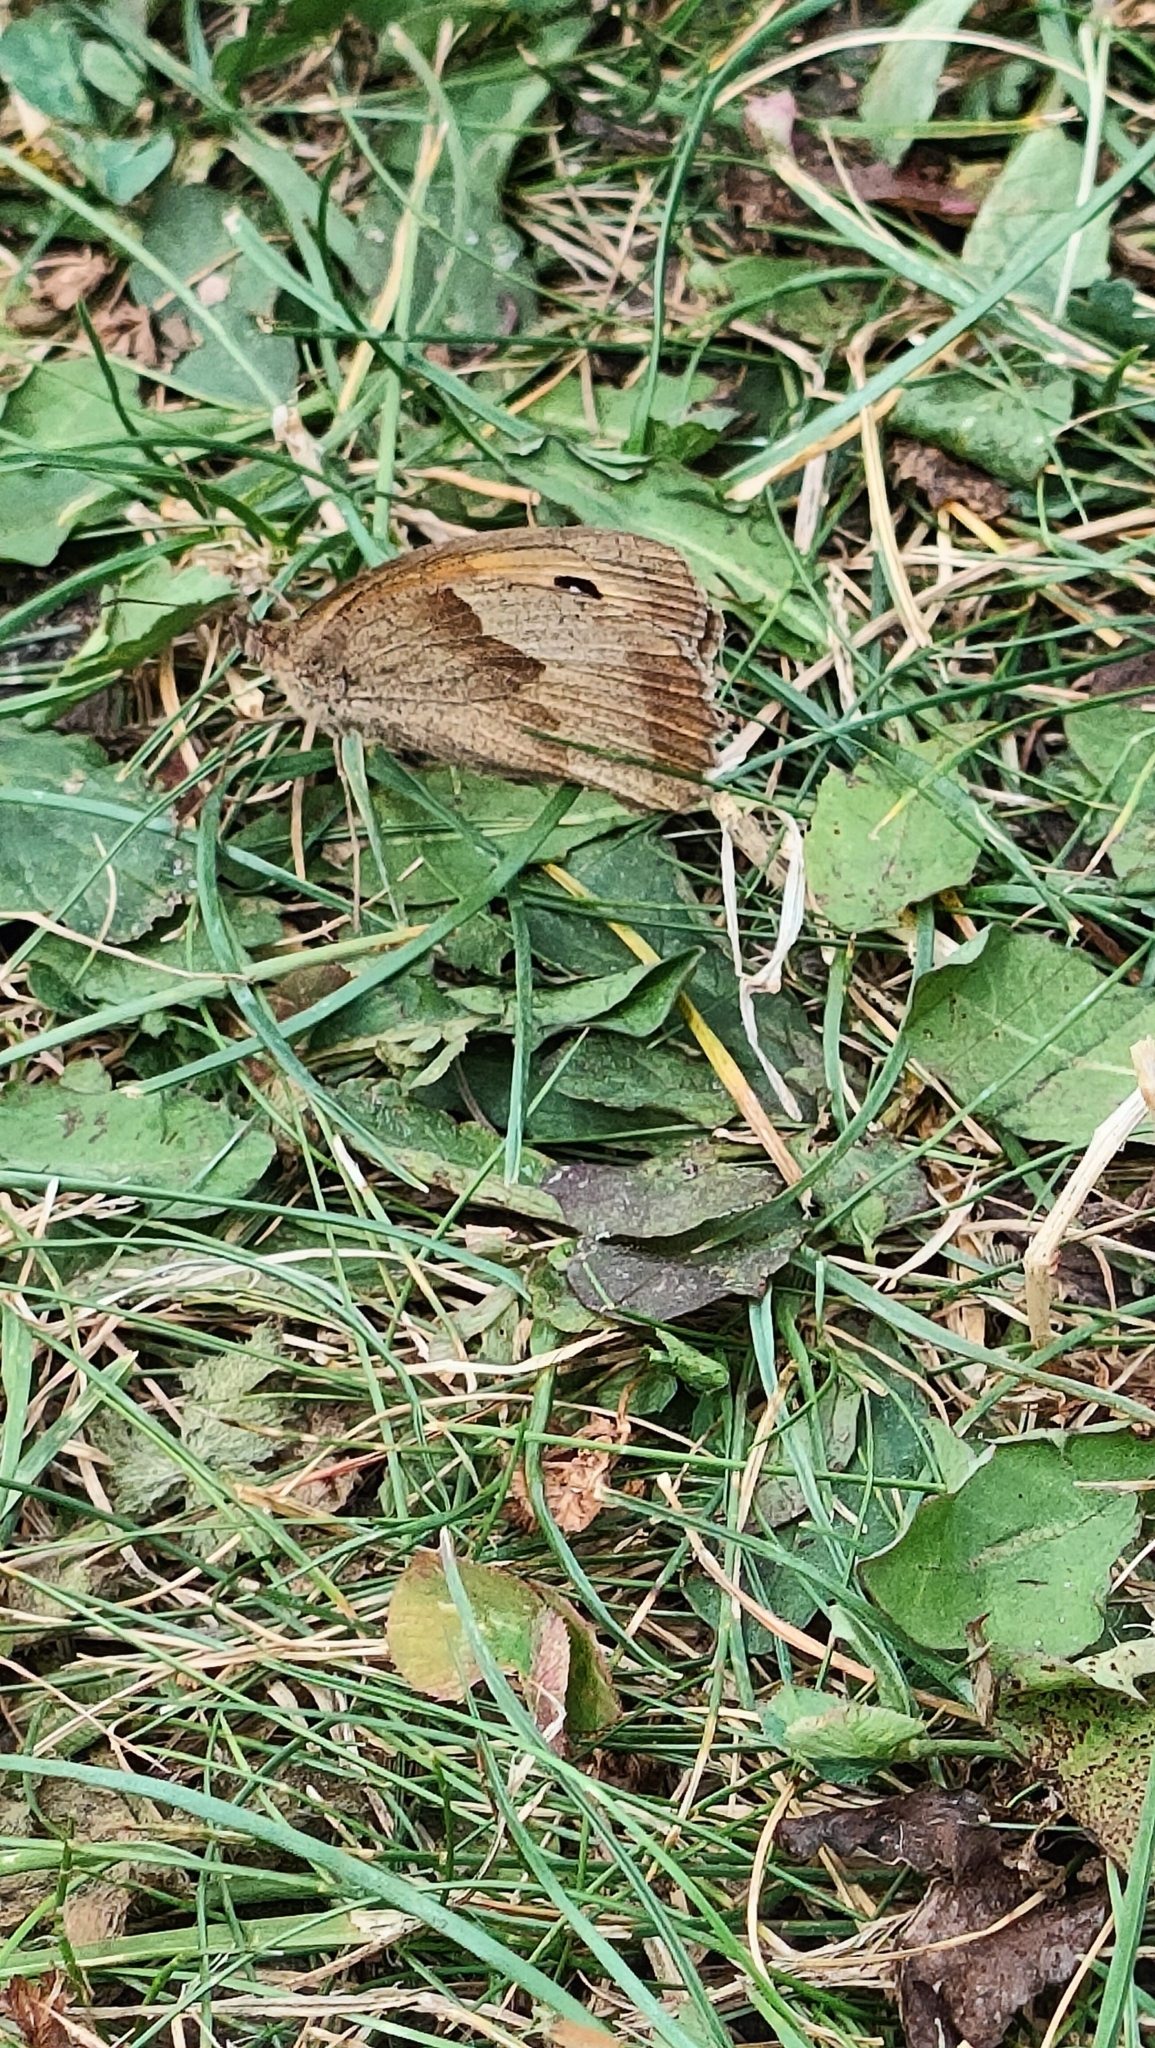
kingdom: Animalia
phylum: Arthropoda
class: Insecta
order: Lepidoptera
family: Nymphalidae
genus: Maniola
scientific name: Maniola jurtina
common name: Meadow brown
